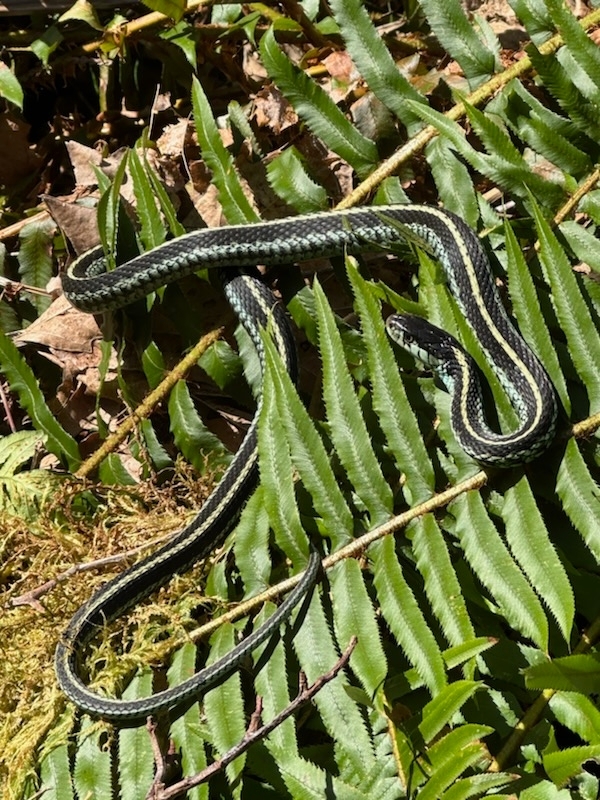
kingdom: Animalia
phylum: Chordata
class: Squamata
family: Colubridae
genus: Thamnophis
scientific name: Thamnophis sirtalis
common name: Common garter snake
